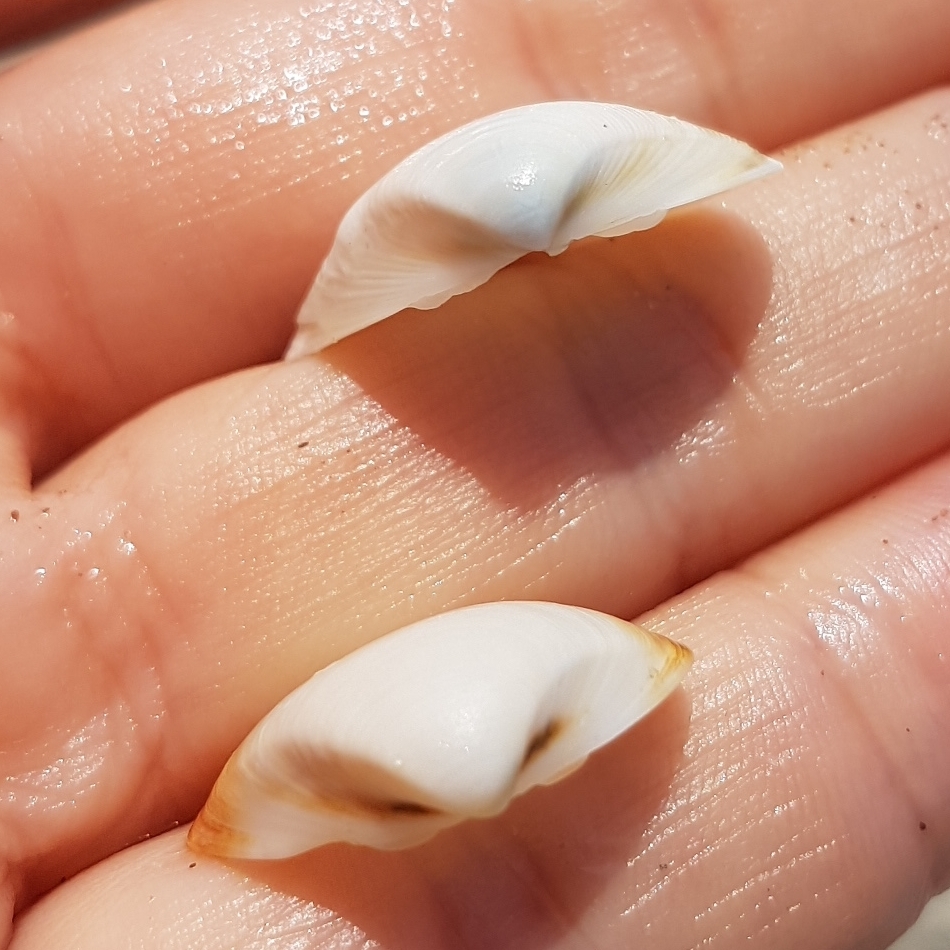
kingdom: Animalia
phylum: Mollusca
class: Bivalvia
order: Venerida
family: Mactridae
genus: Spisula
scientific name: Spisula subtruncata
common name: Cut trough shell
